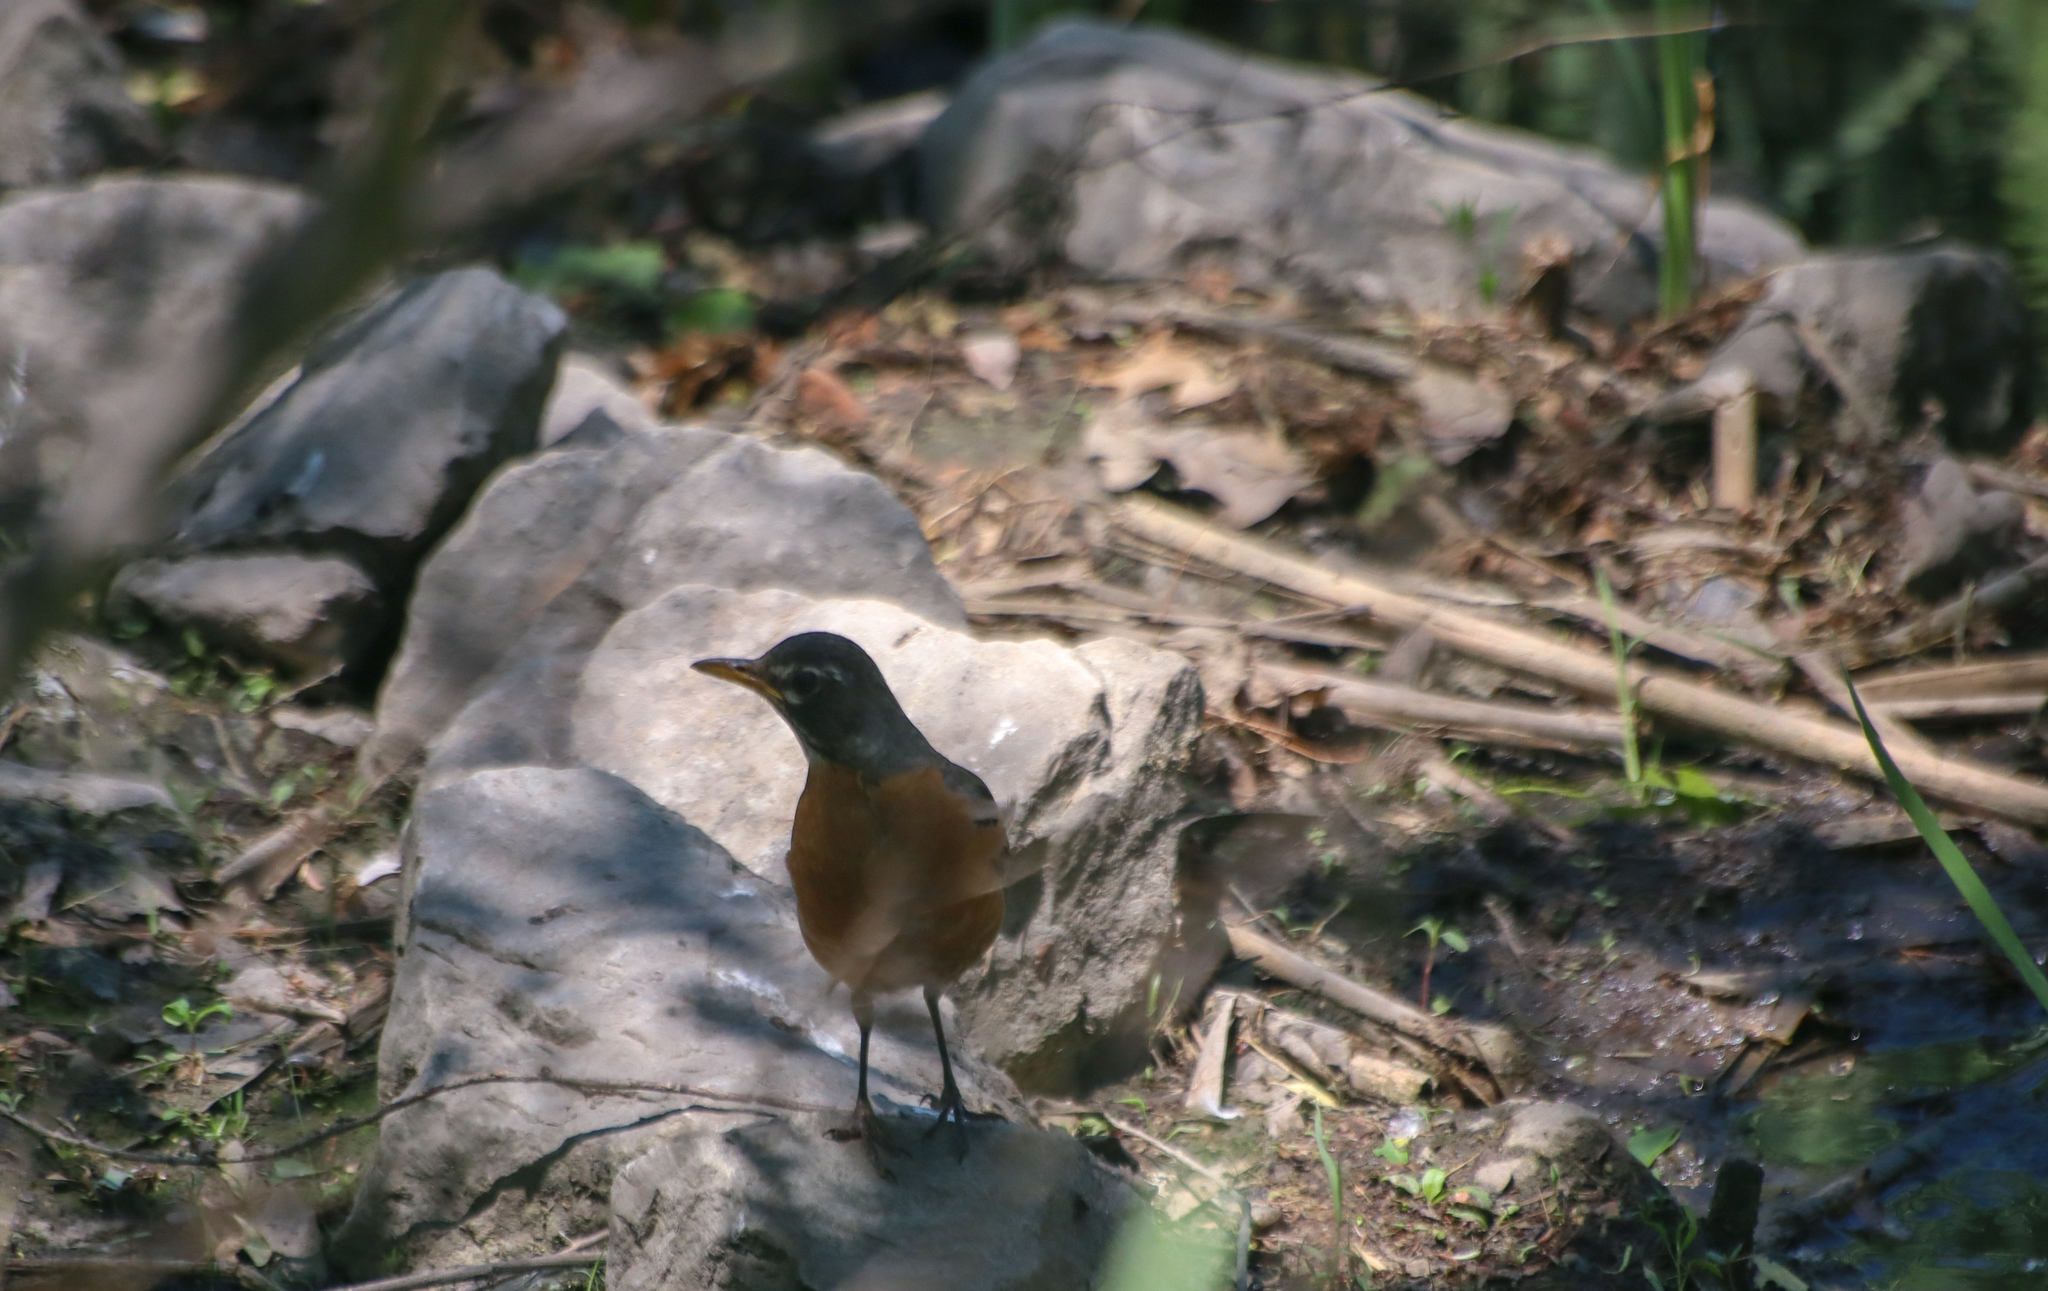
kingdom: Animalia
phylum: Chordata
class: Aves
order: Passeriformes
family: Turdidae
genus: Turdus
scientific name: Turdus migratorius
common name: American robin
